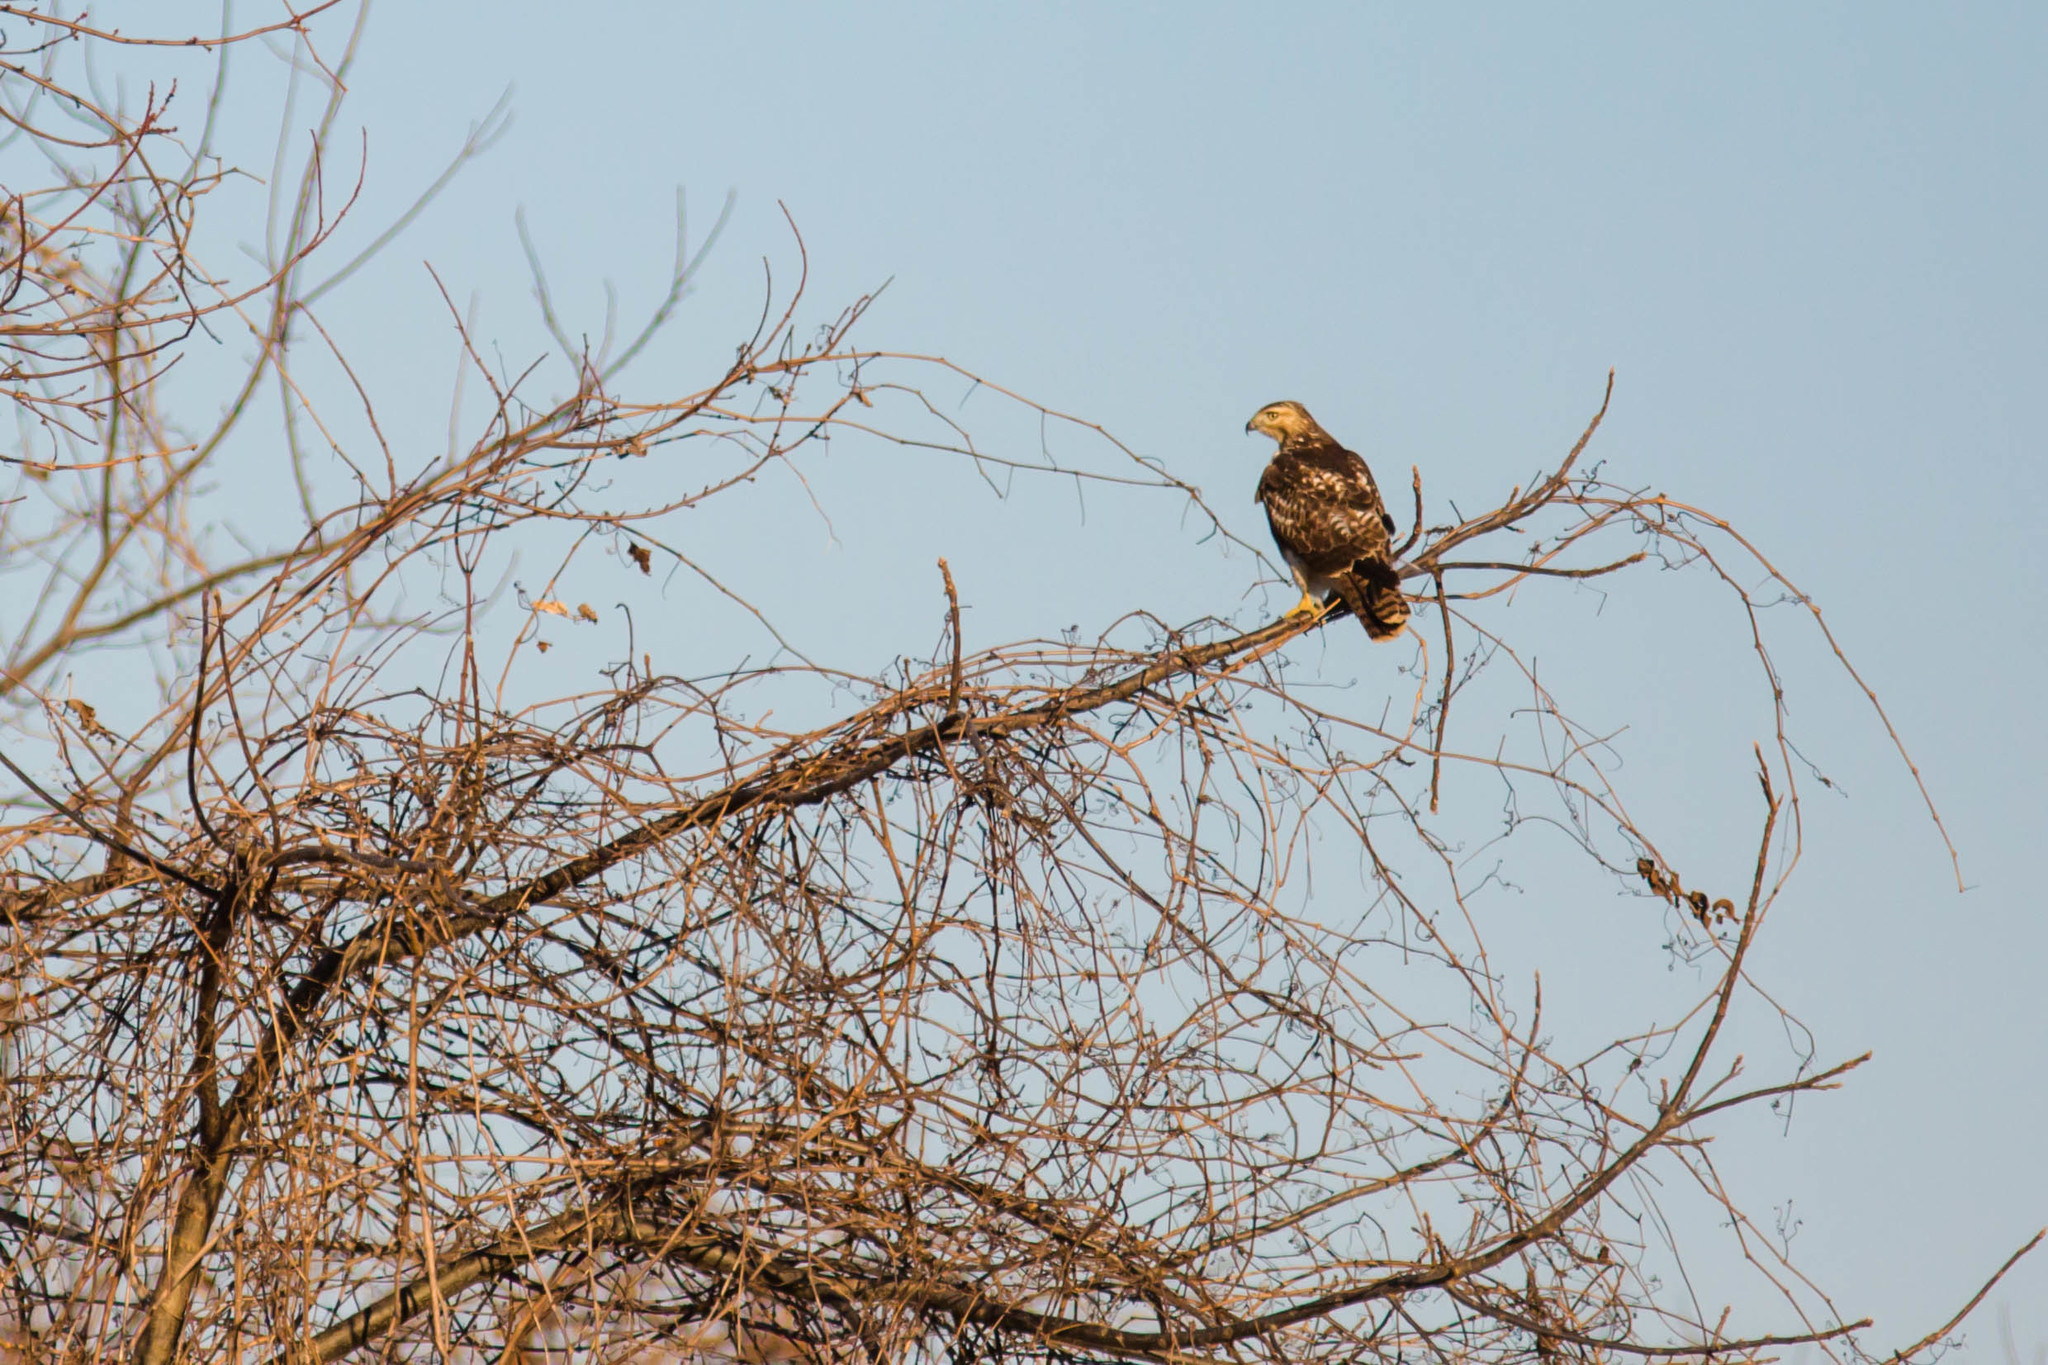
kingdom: Animalia
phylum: Chordata
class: Aves
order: Accipitriformes
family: Accipitridae
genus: Buteo
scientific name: Buteo jamaicensis
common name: Red-tailed hawk
